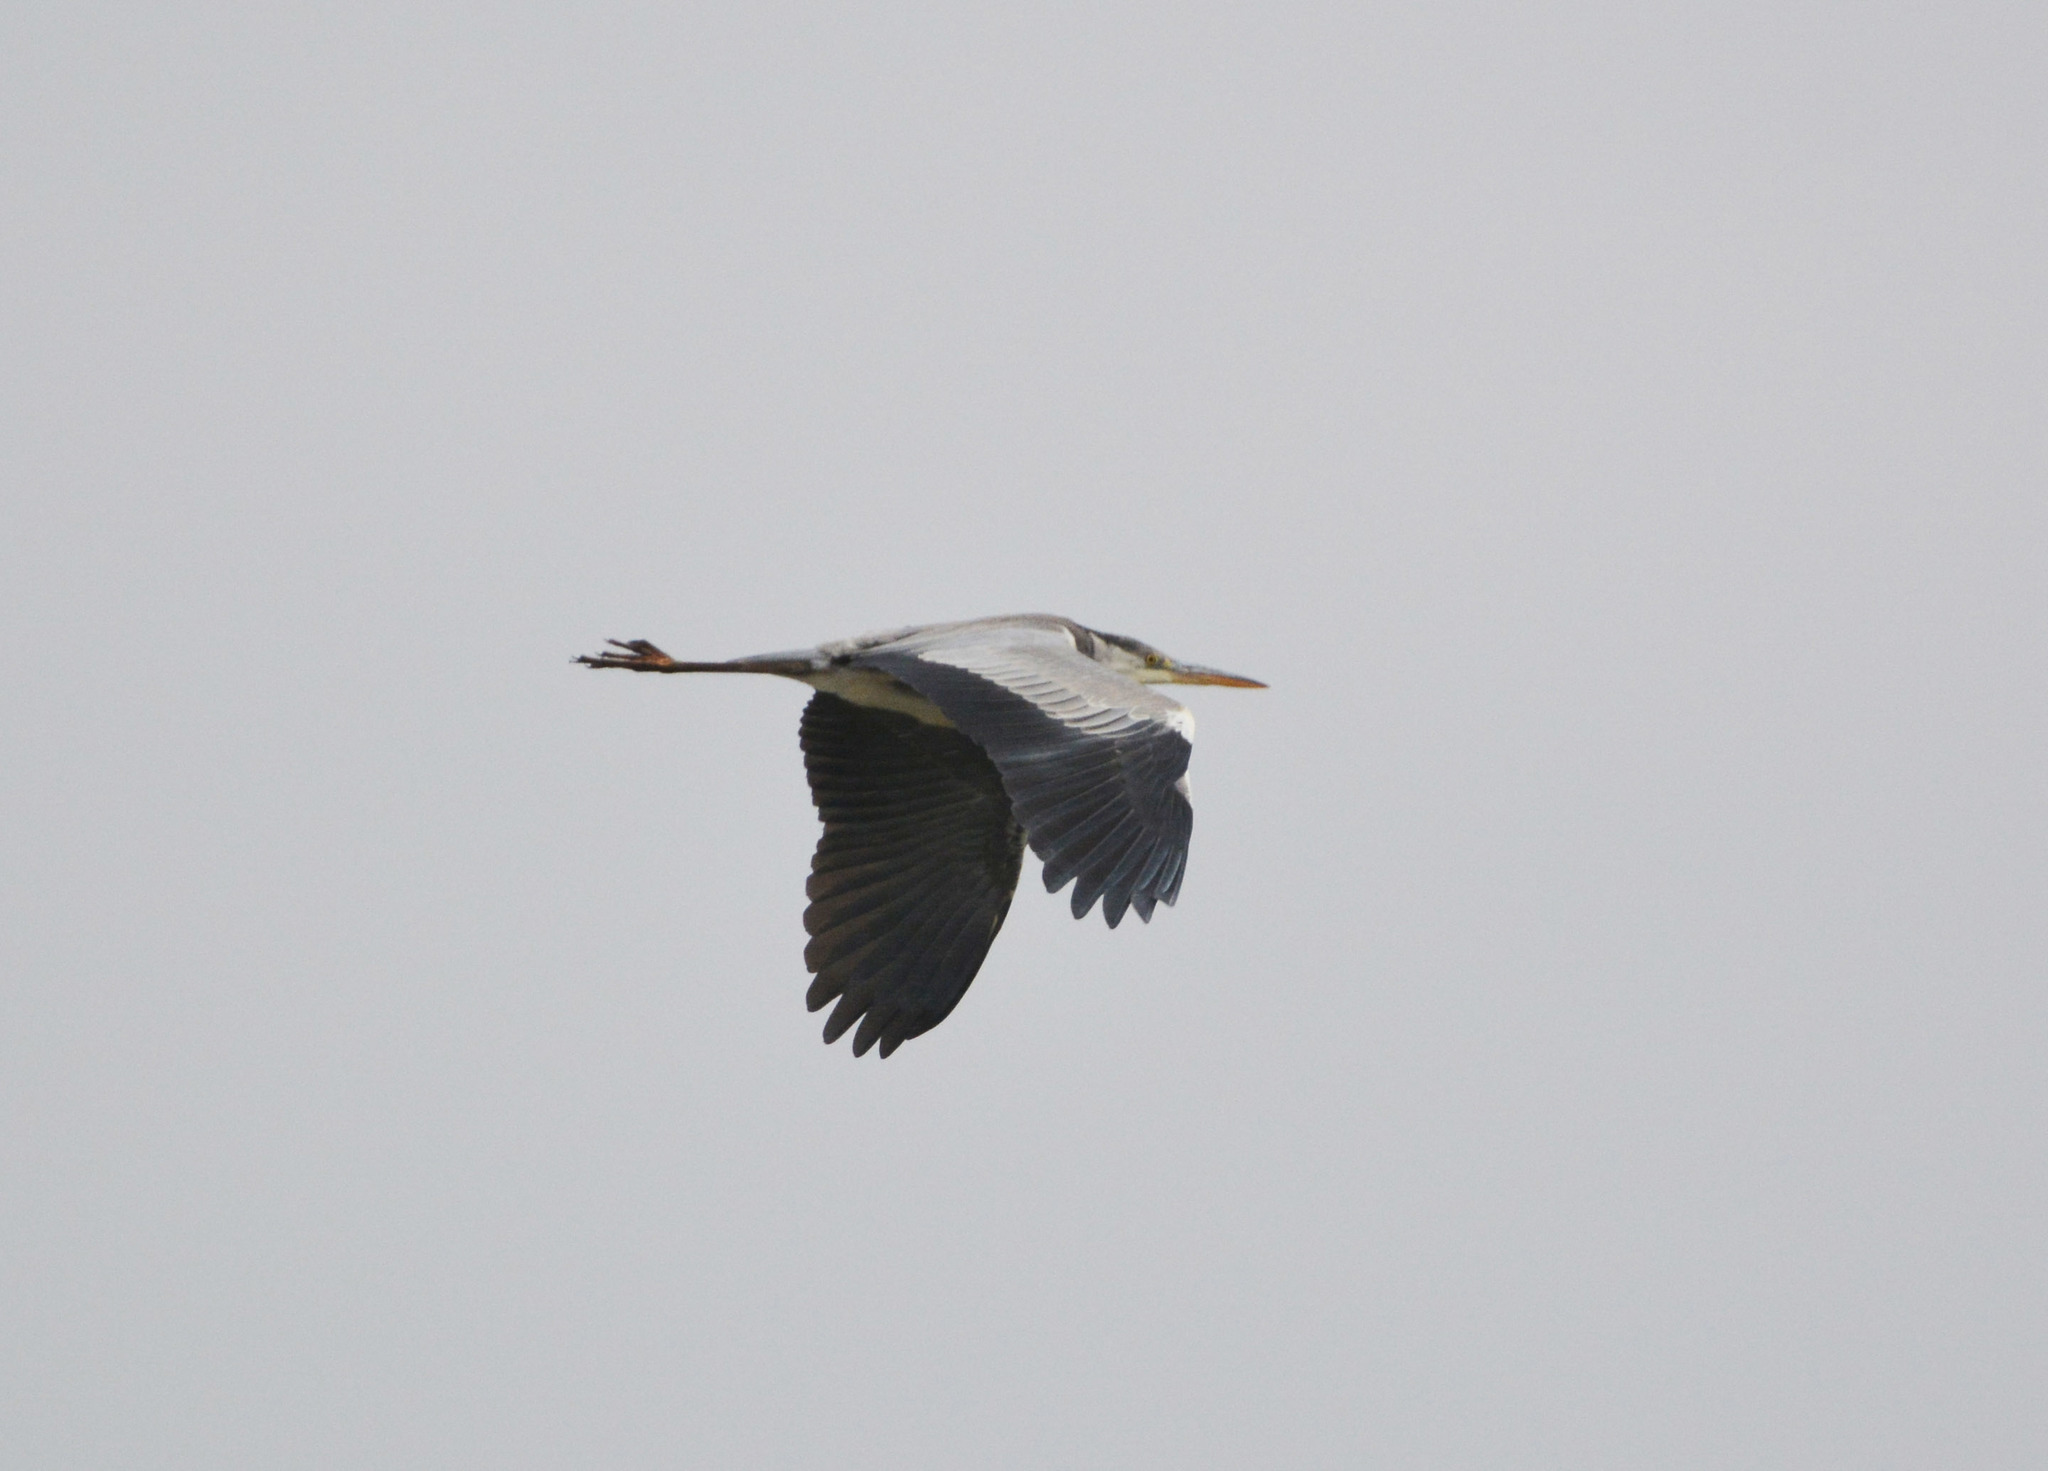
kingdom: Animalia
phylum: Chordata
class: Aves
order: Pelecaniformes
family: Ardeidae
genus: Ardea
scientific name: Ardea cinerea
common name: Grey heron
